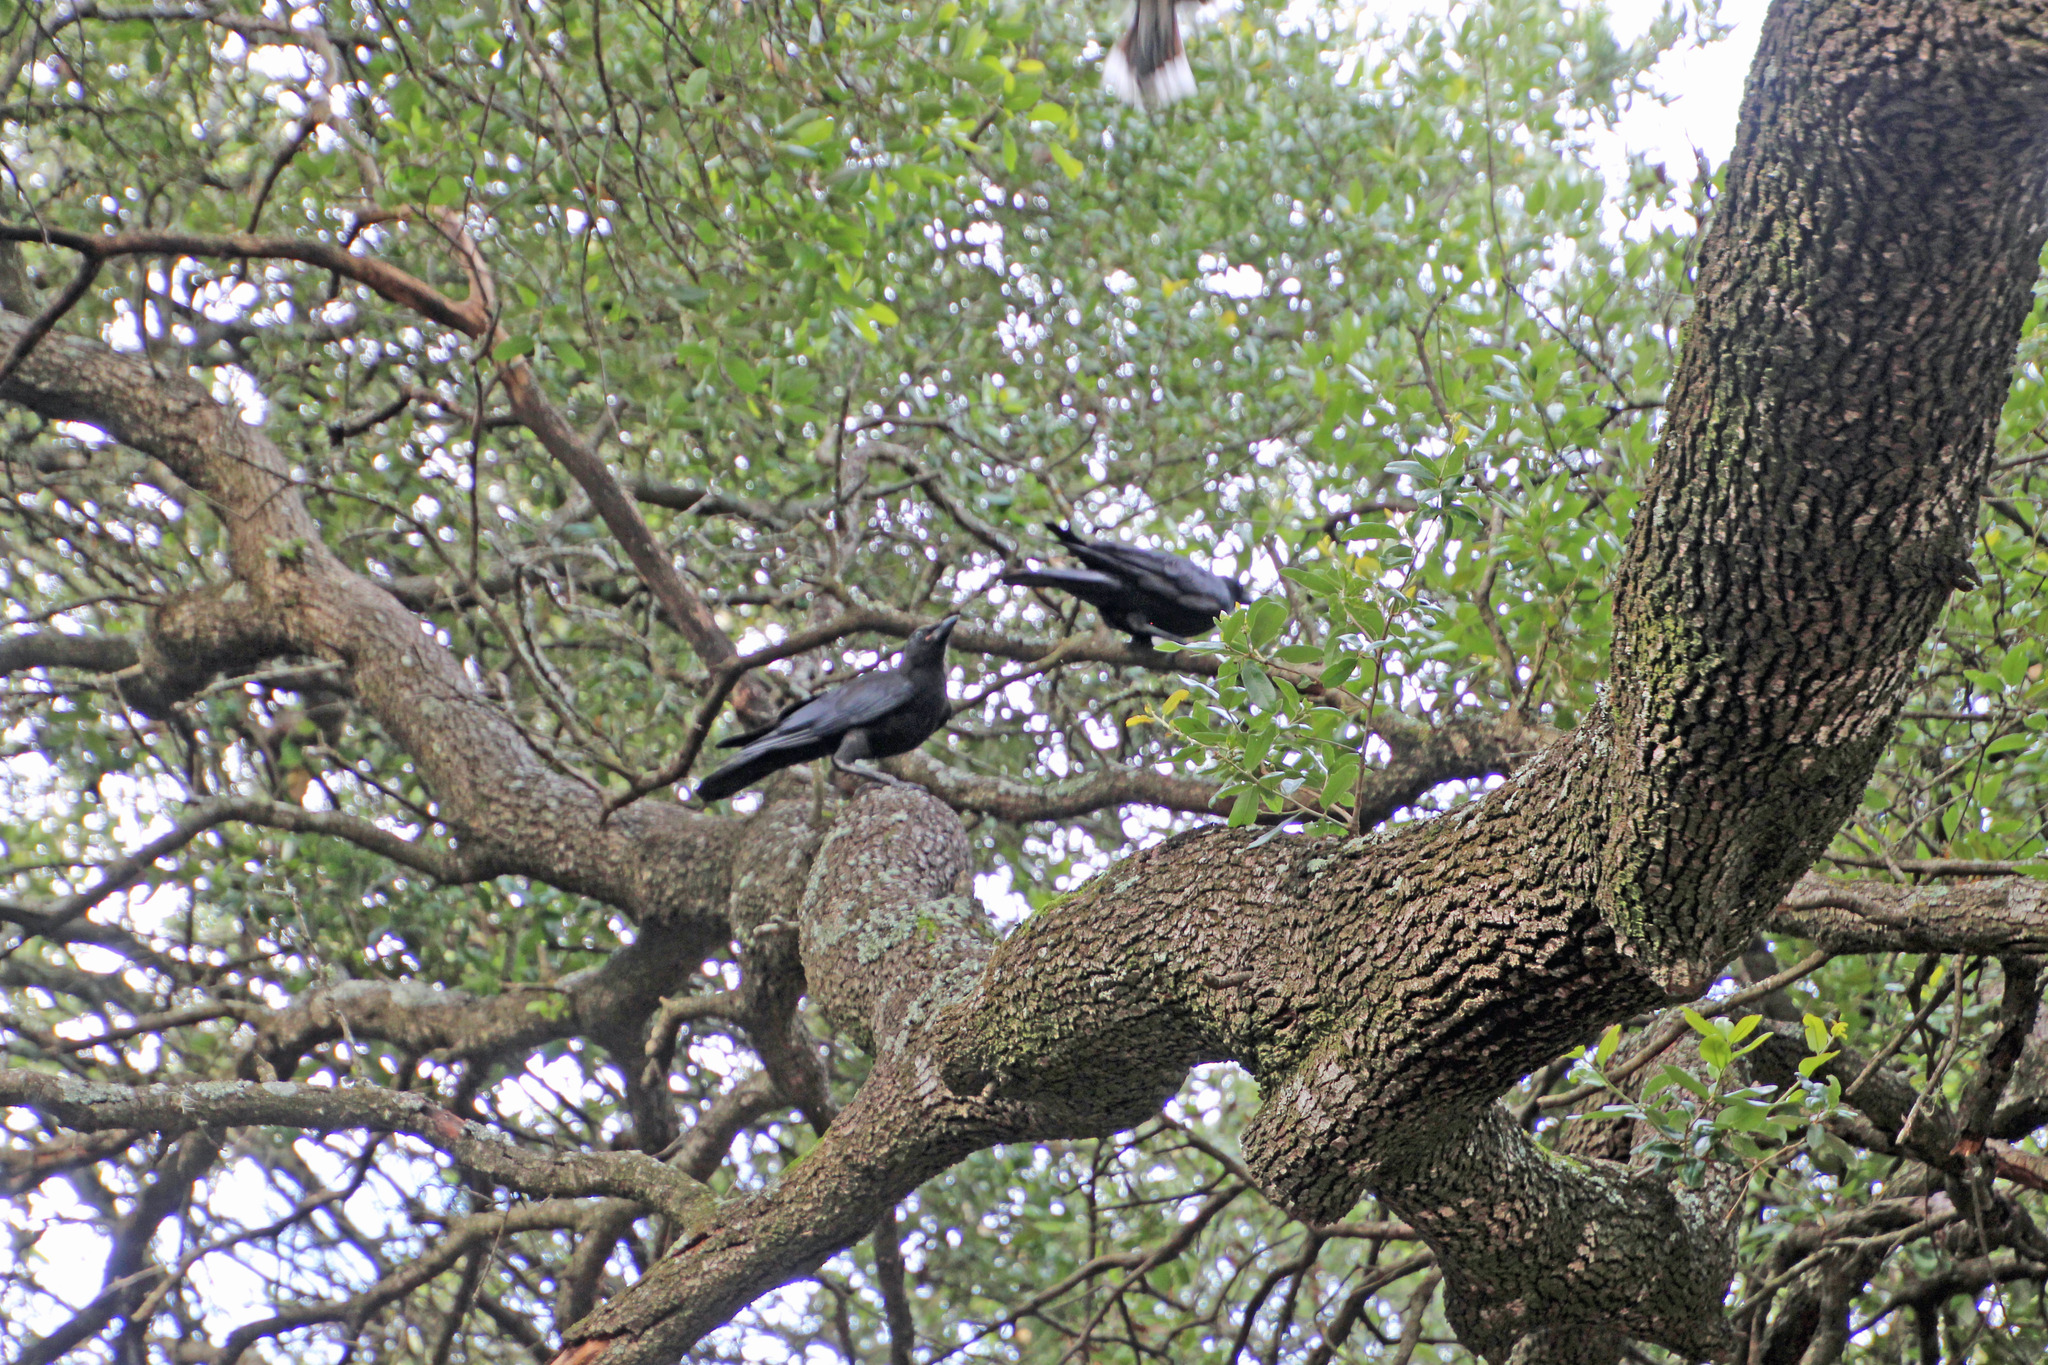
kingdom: Animalia
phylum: Chordata
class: Aves
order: Passeriformes
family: Corvidae
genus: Corvus
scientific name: Corvus brachyrhynchos
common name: American crow
